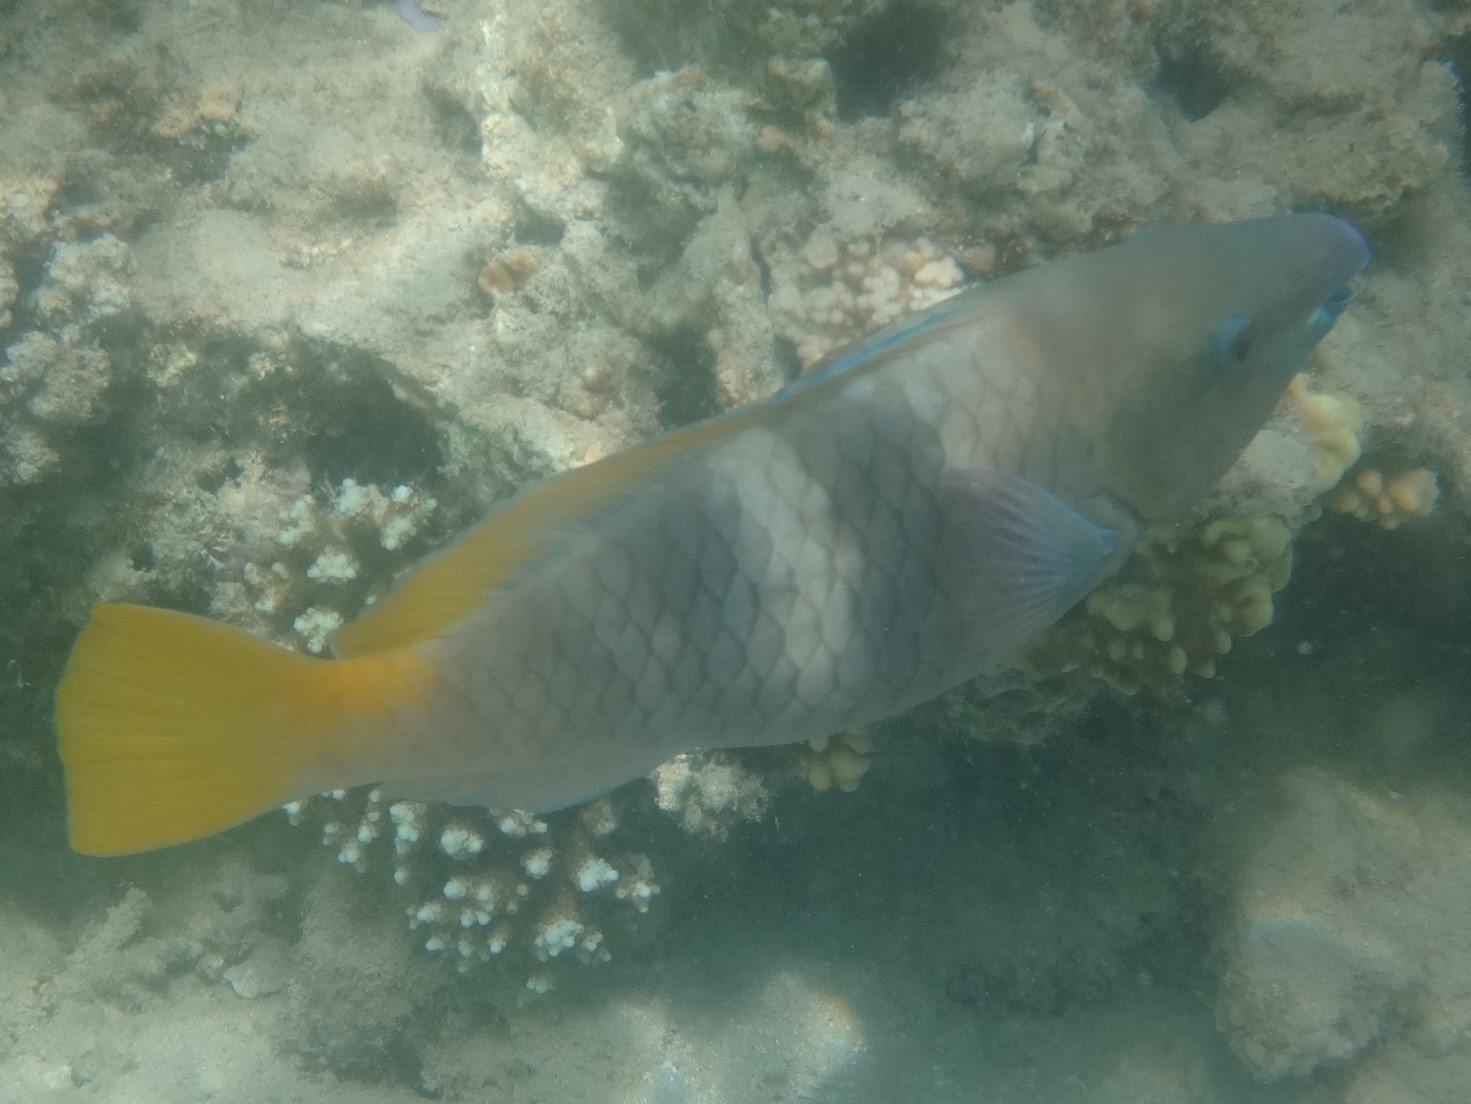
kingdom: Animalia
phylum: Chordata
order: Perciformes
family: Scaridae
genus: Scarus
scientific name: Scarus ferrugineus
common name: Rusty parrotfish
